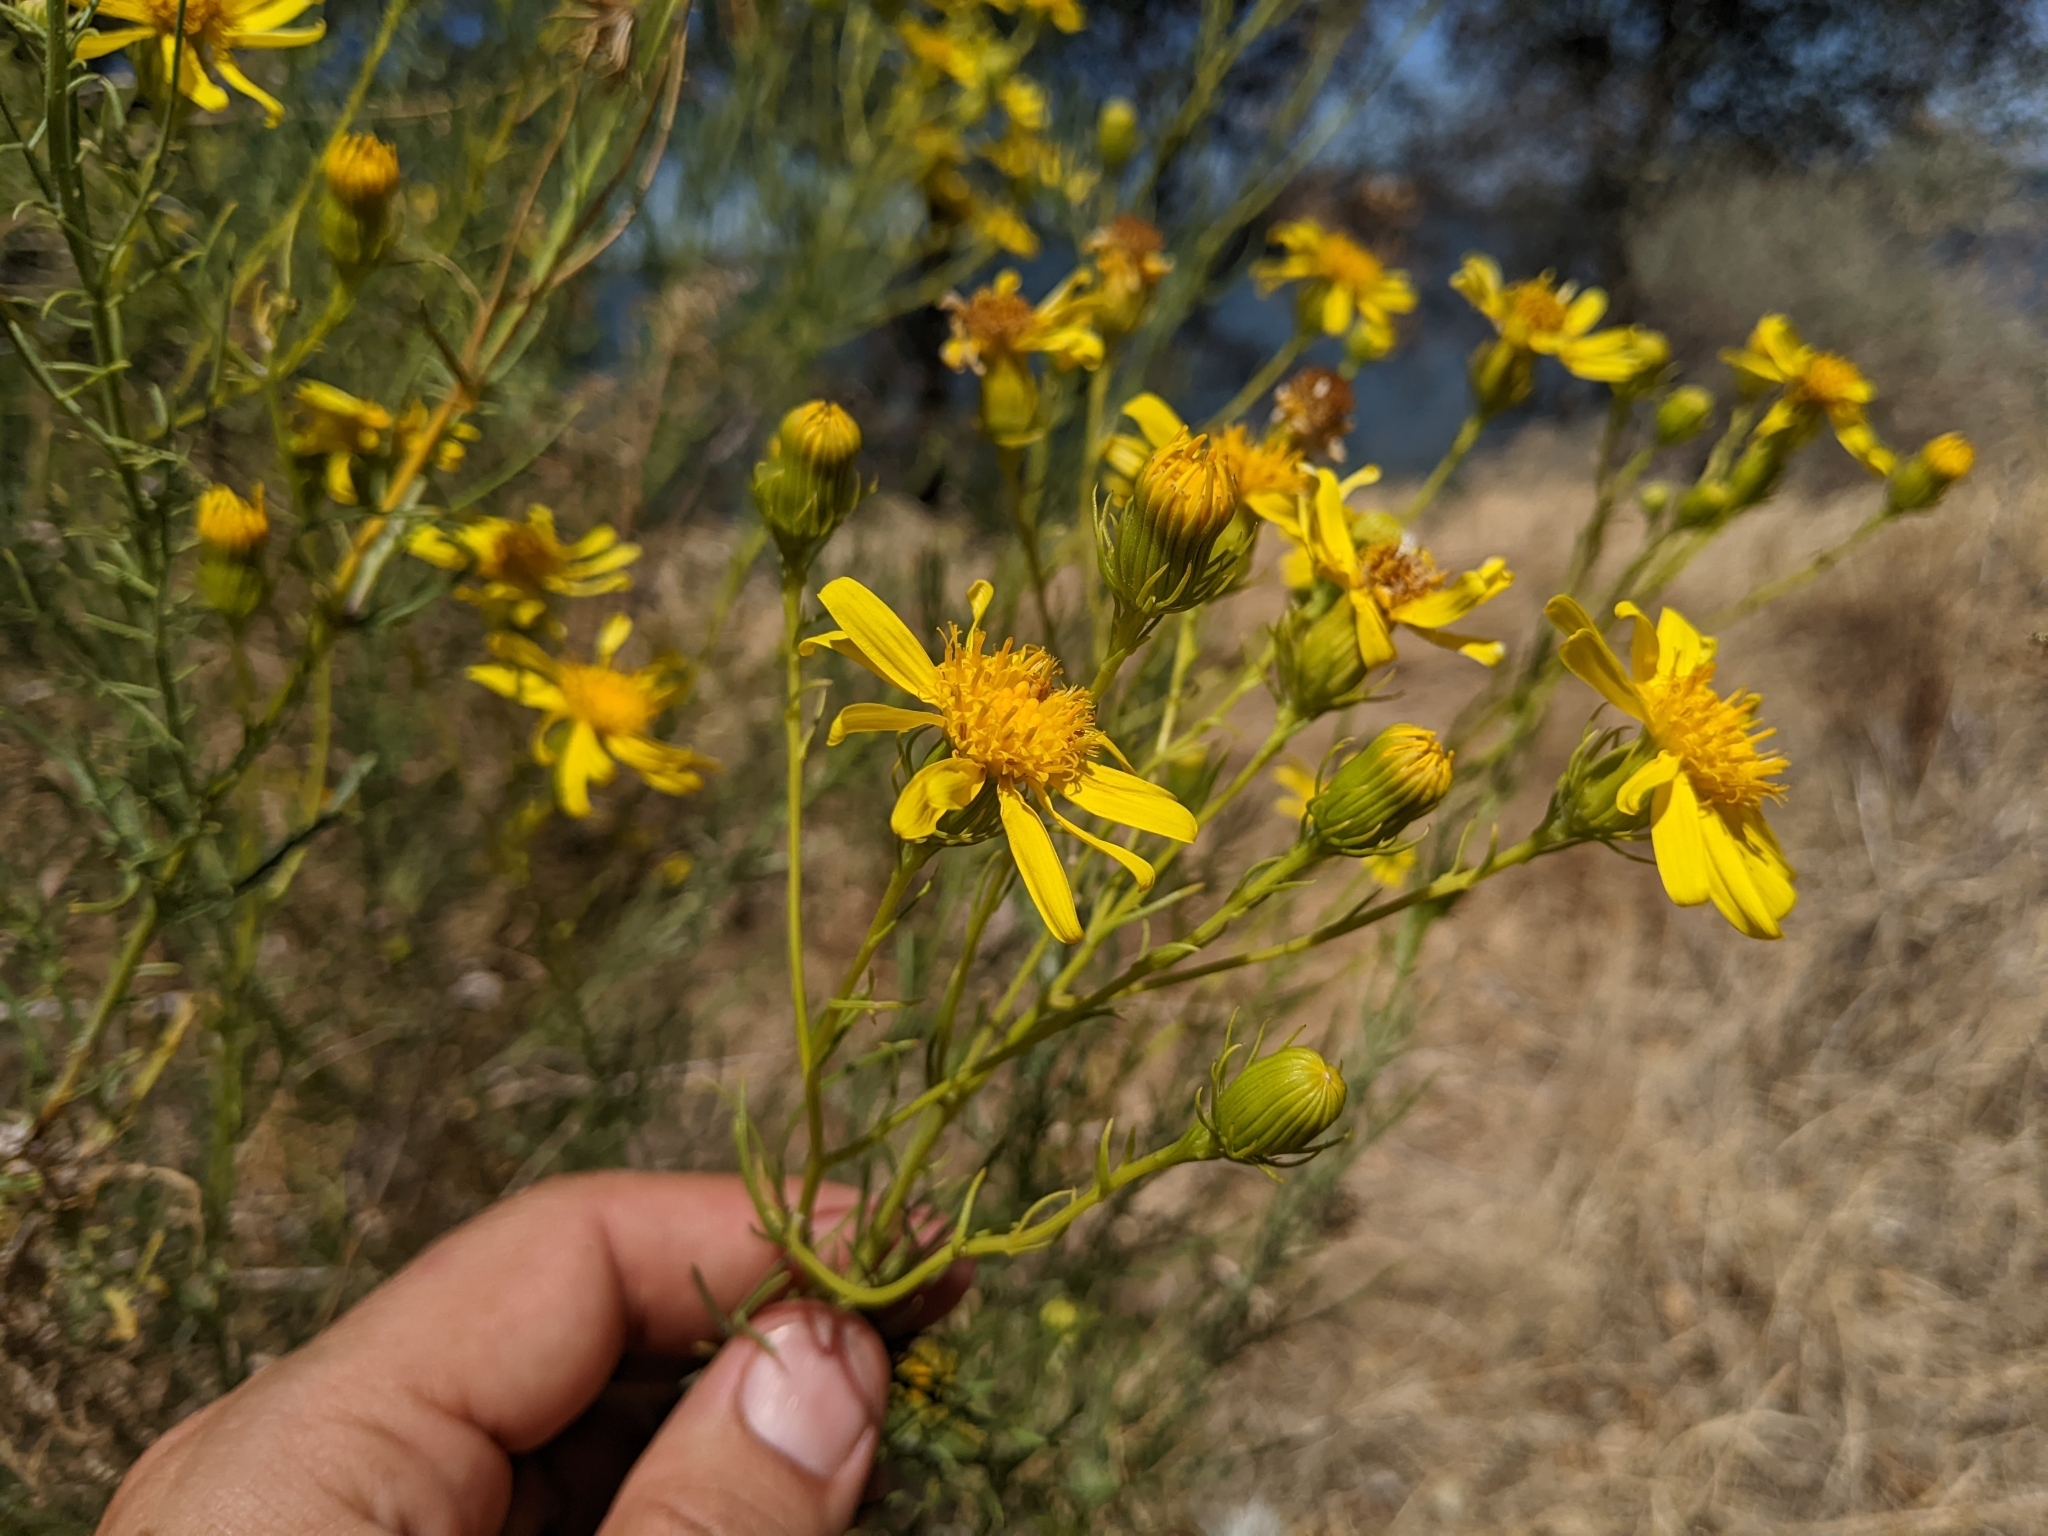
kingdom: Plantae
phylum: Tracheophyta
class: Magnoliopsida
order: Asterales
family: Asteraceae
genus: Senecio
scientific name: Senecio flaccidus
